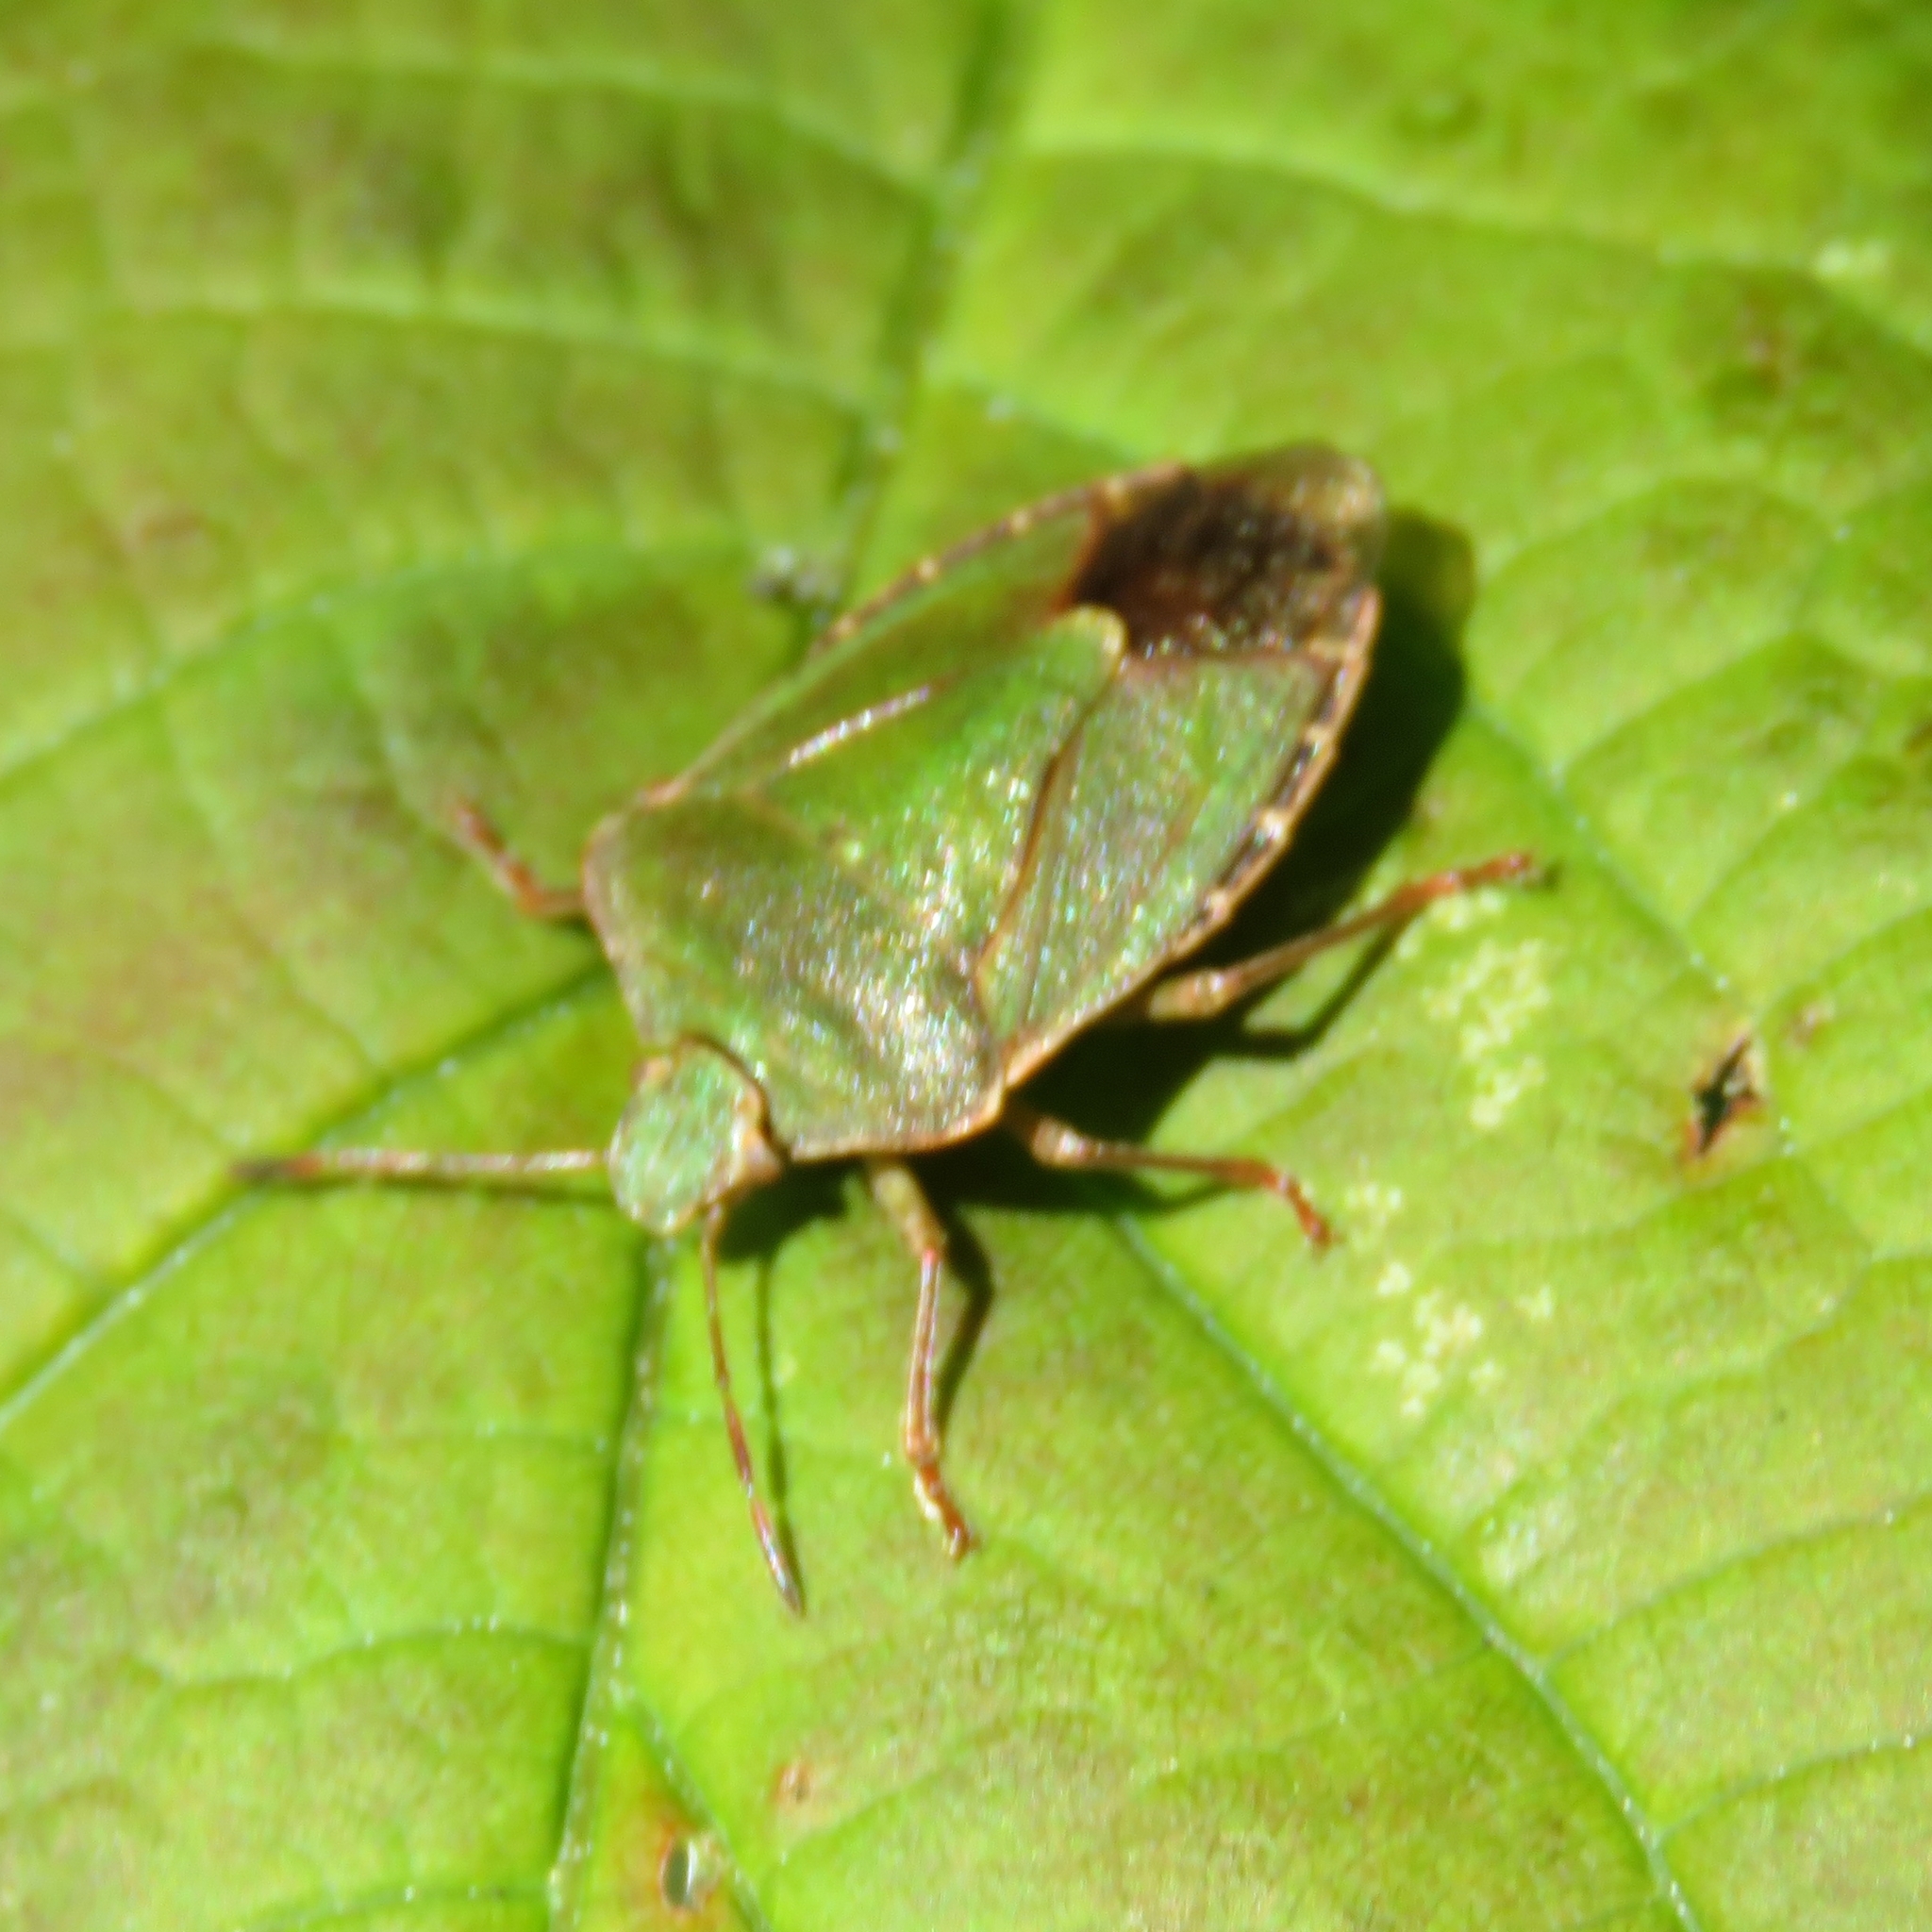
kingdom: Animalia
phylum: Arthropoda
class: Insecta
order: Hemiptera
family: Pentatomidae
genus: Palomena
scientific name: Palomena prasina
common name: Green shieldbug
